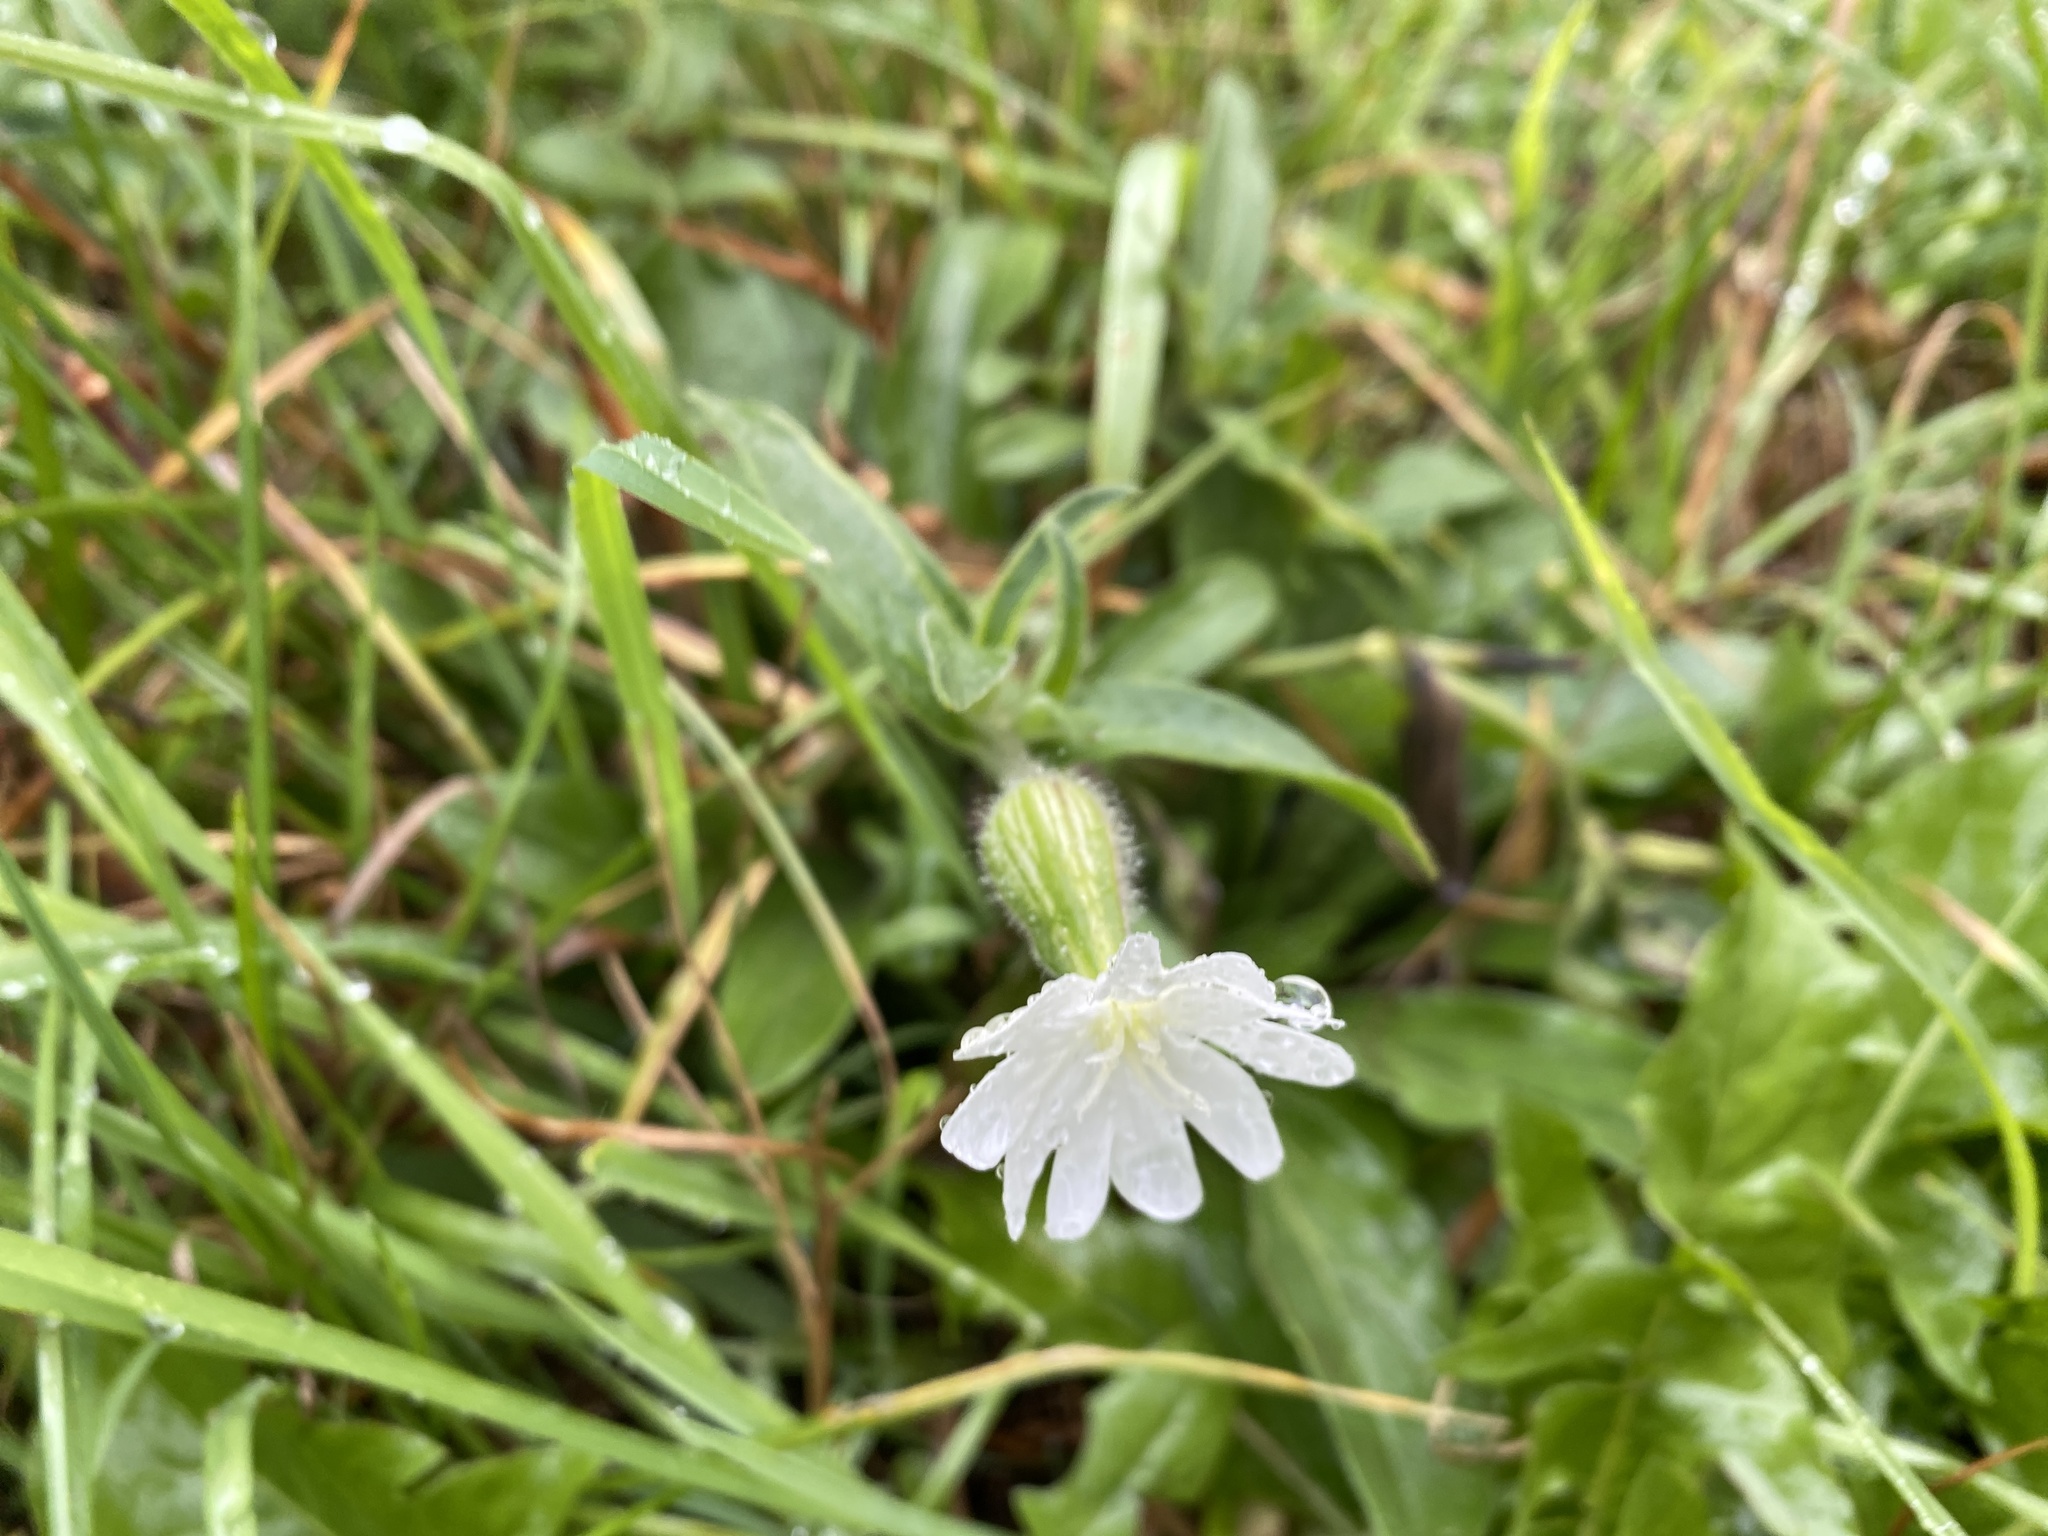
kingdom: Plantae
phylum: Tracheophyta
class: Magnoliopsida
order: Caryophyllales
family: Caryophyllaceae
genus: Silene
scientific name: Silene latifolia
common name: White campion
